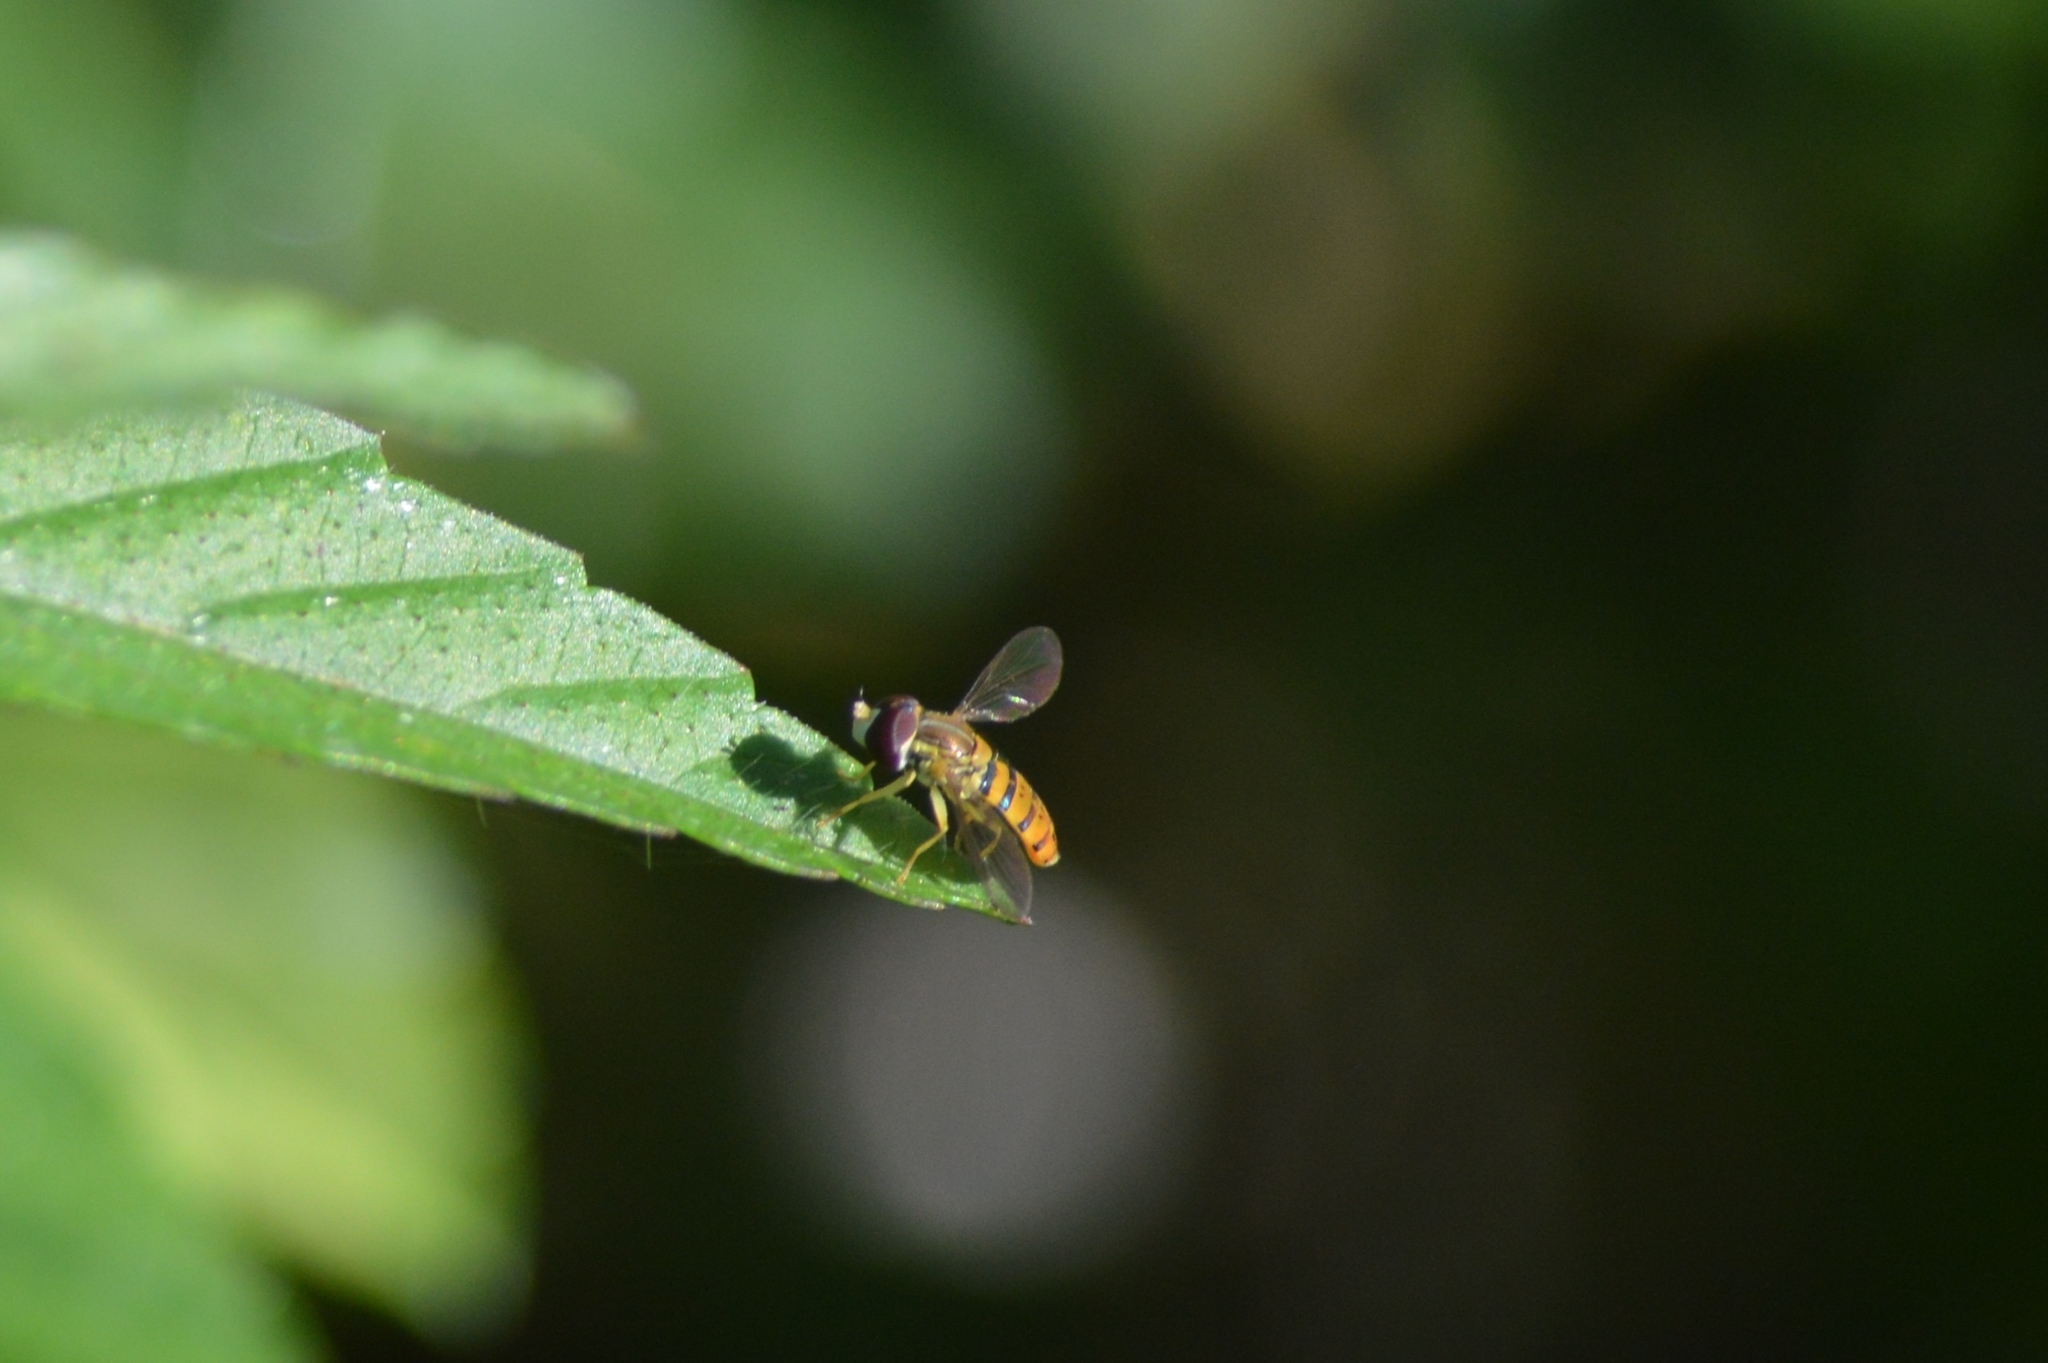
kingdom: Animalia
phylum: Arthropoda
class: Insecta
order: Diptera
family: Syrphidae
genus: Toxomerus
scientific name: Toxomerus
